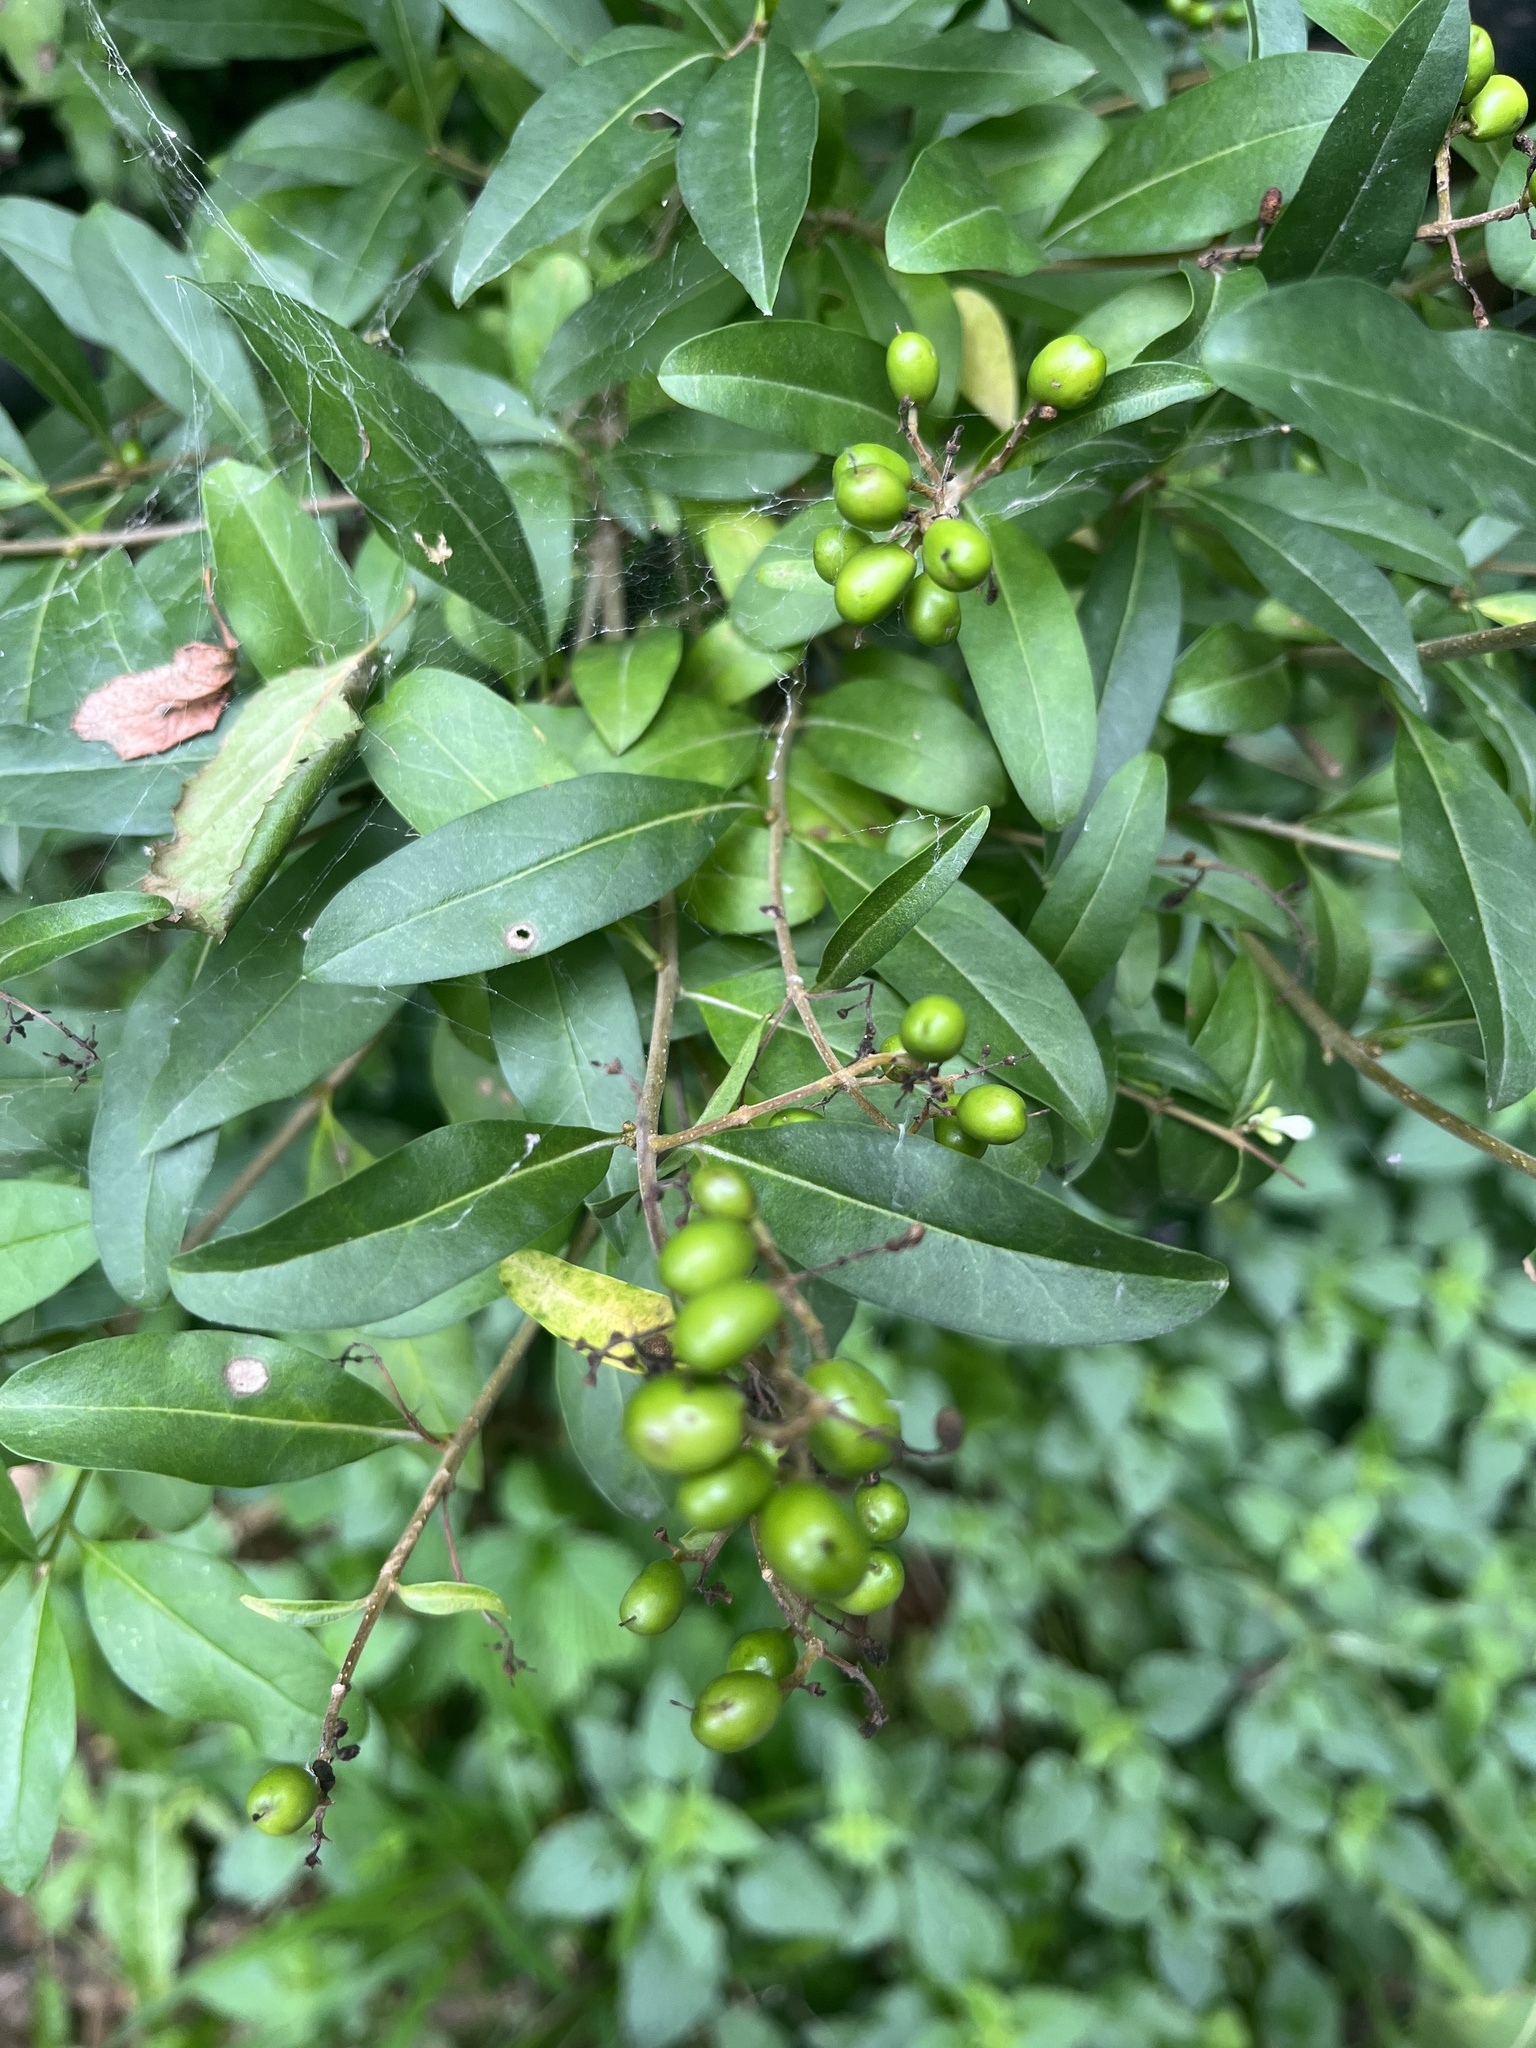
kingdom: Plantae
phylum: Tracheophyta
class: Magnoliopsida
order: Lamiales
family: Oleaceae
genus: Ligustrum
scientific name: Ligustrum vulgare
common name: Wild privet
